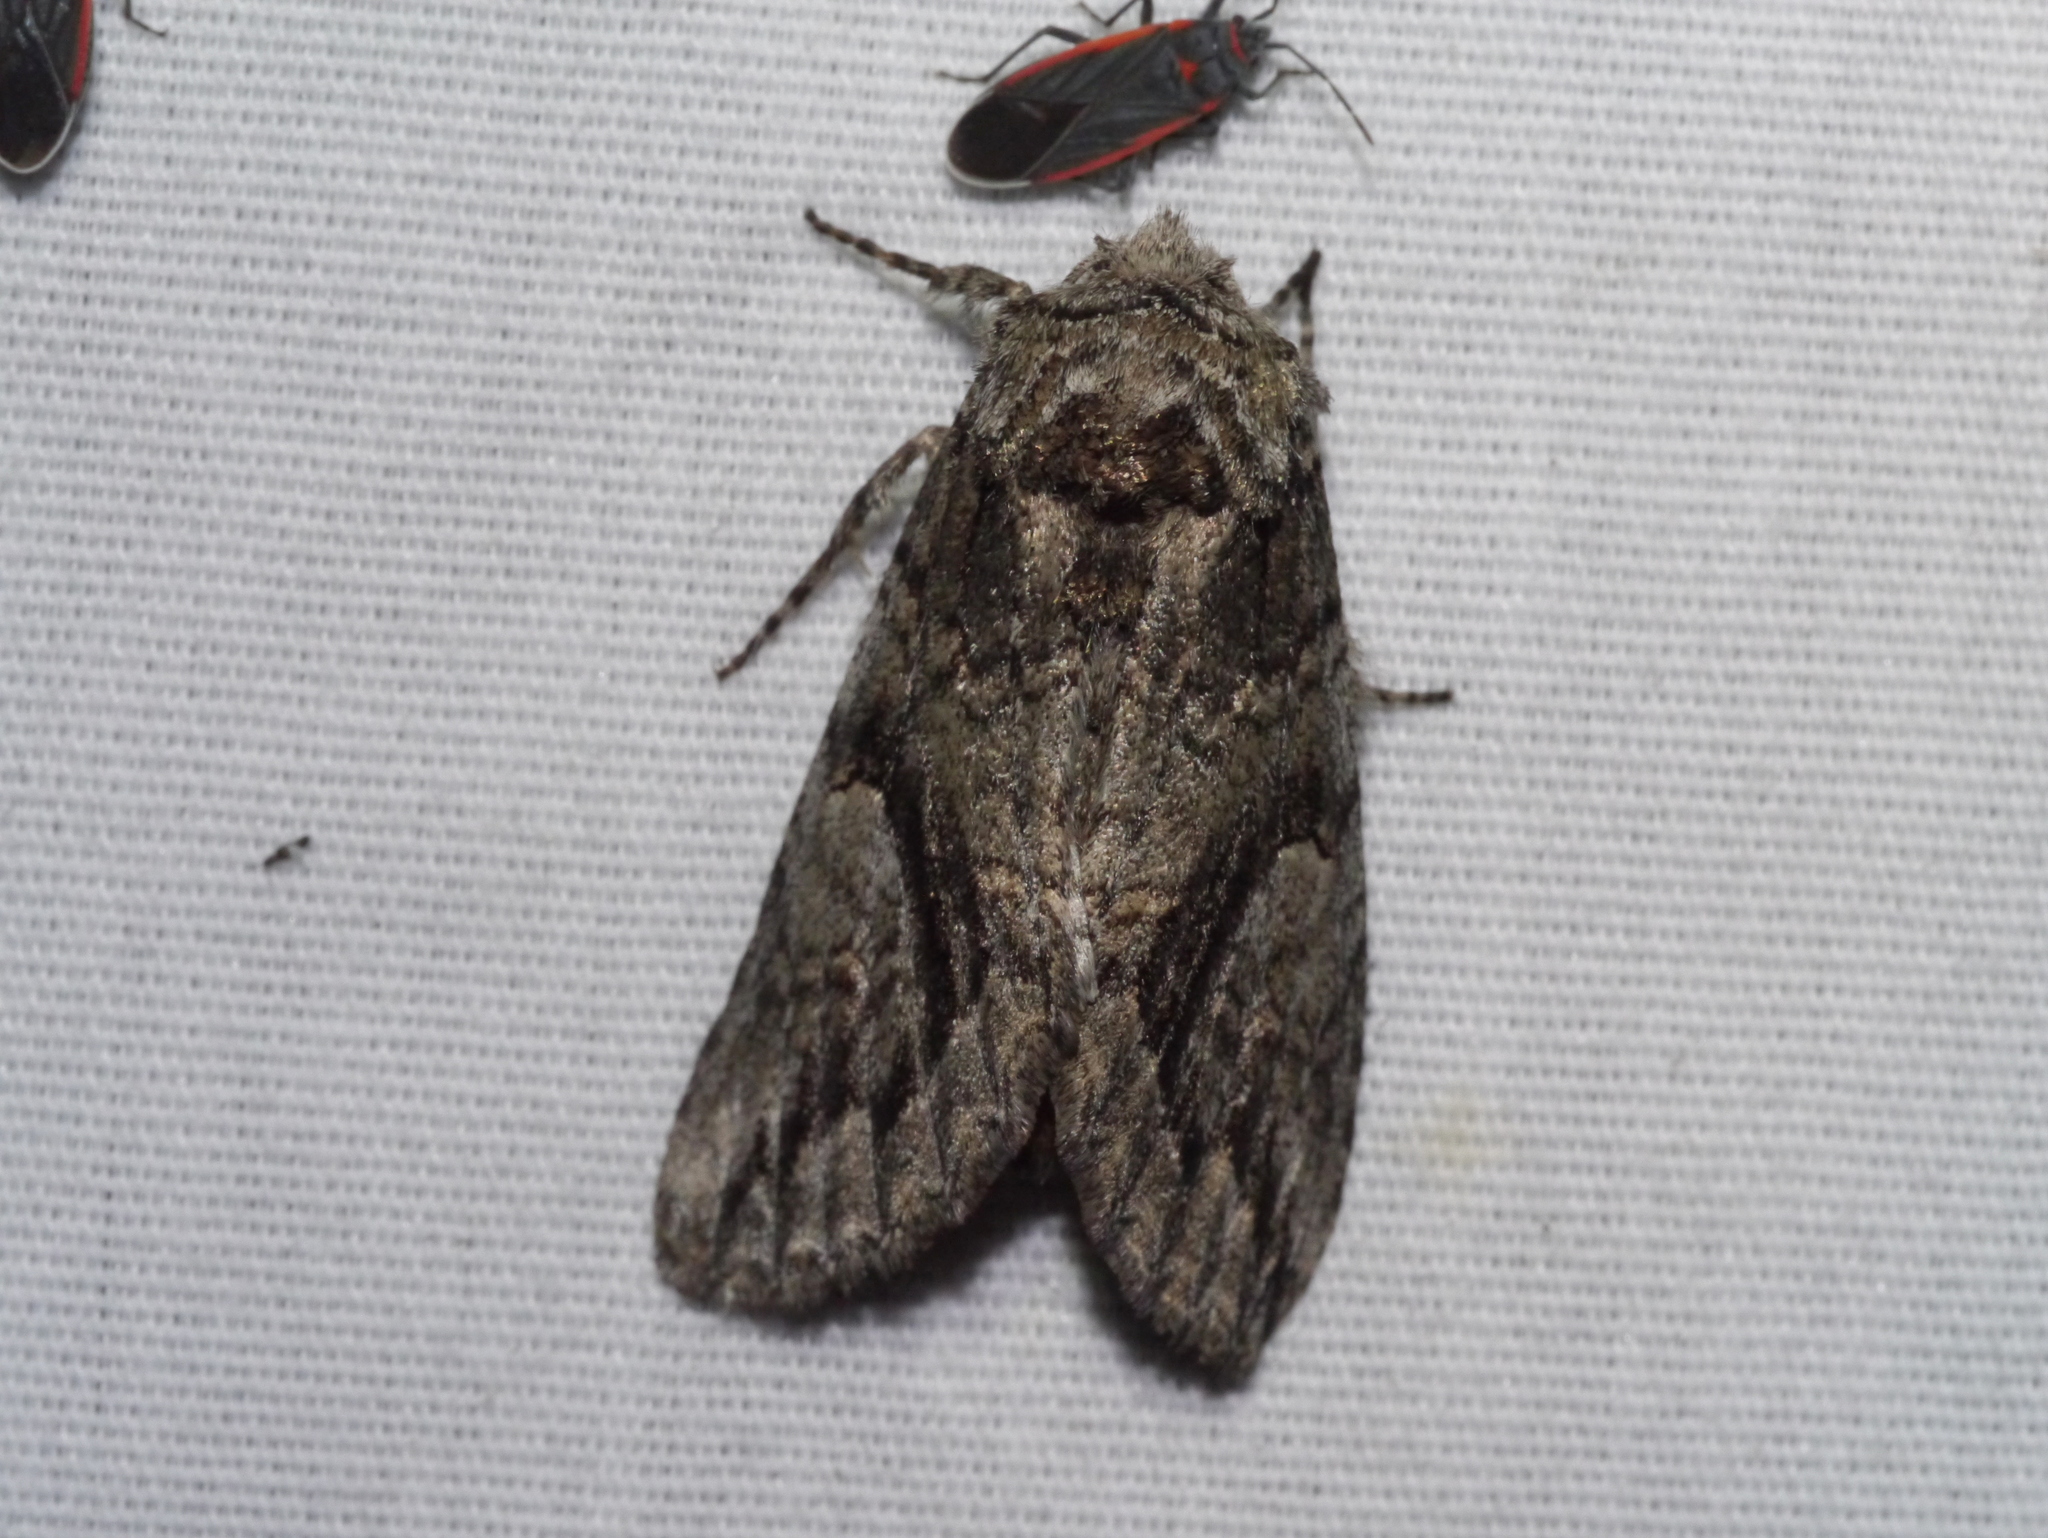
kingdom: Animalia
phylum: Arthropoda
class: Insecta
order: Lepidoptera
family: Notodontidae
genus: Heterocampa
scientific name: Heterocampa averna
